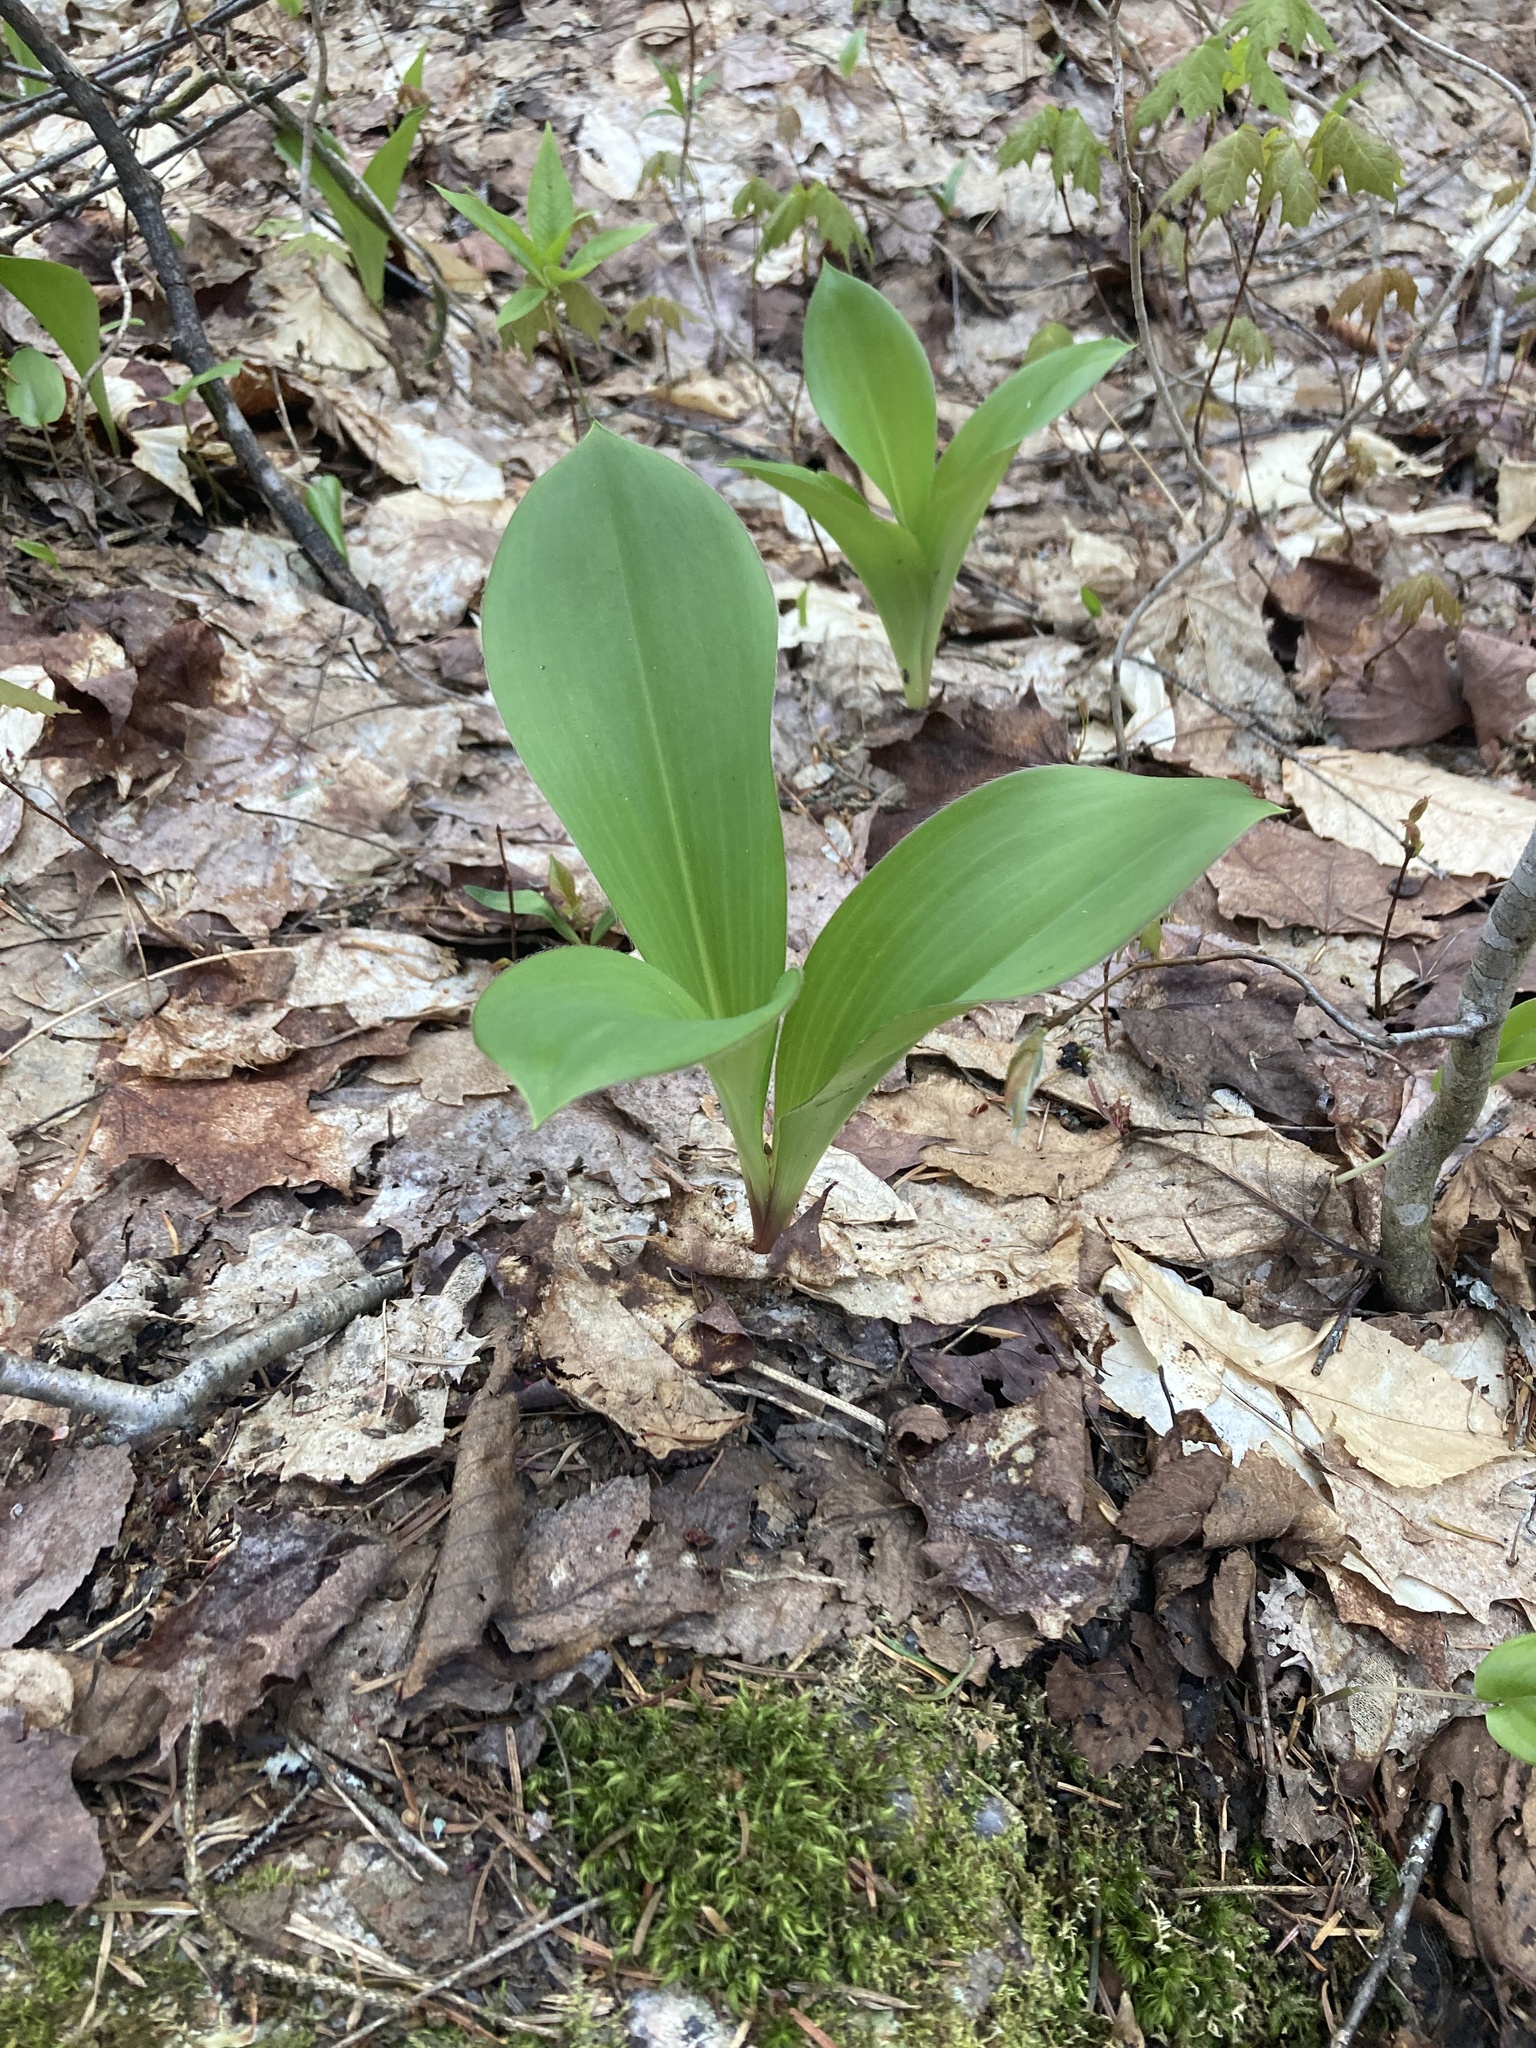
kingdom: Plantae
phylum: Tracheophyta
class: Liliopsida
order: Liliales
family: Liliaceae
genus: Clintonia
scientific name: Clintonia borealis
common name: Yellow clintonia
